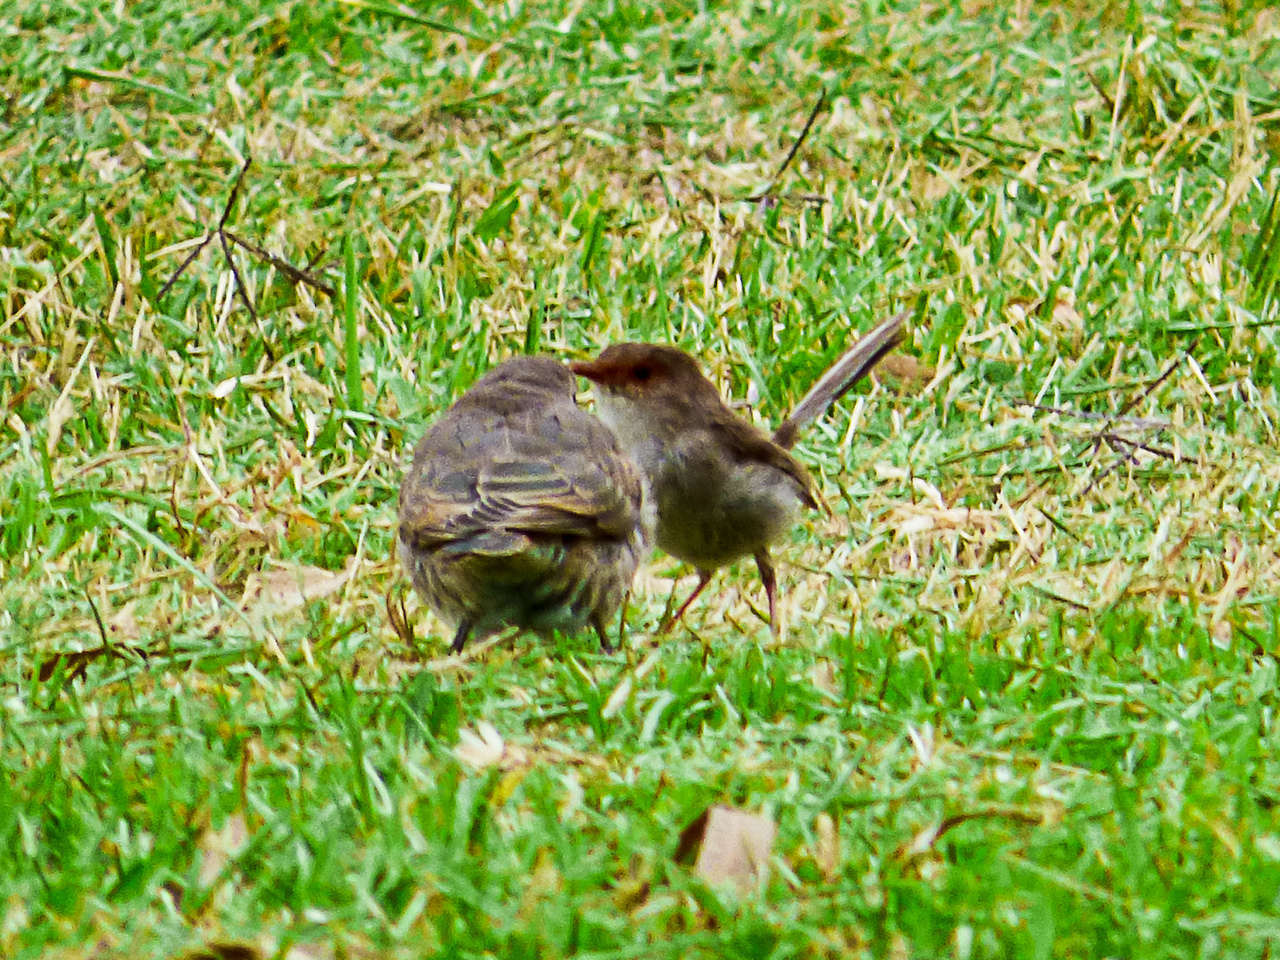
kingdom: Animalia
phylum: Chordata
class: Aves
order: Passeriformes
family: Maluridae
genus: Malurus
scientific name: Malurus cyaneus
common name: Superb fairywren
